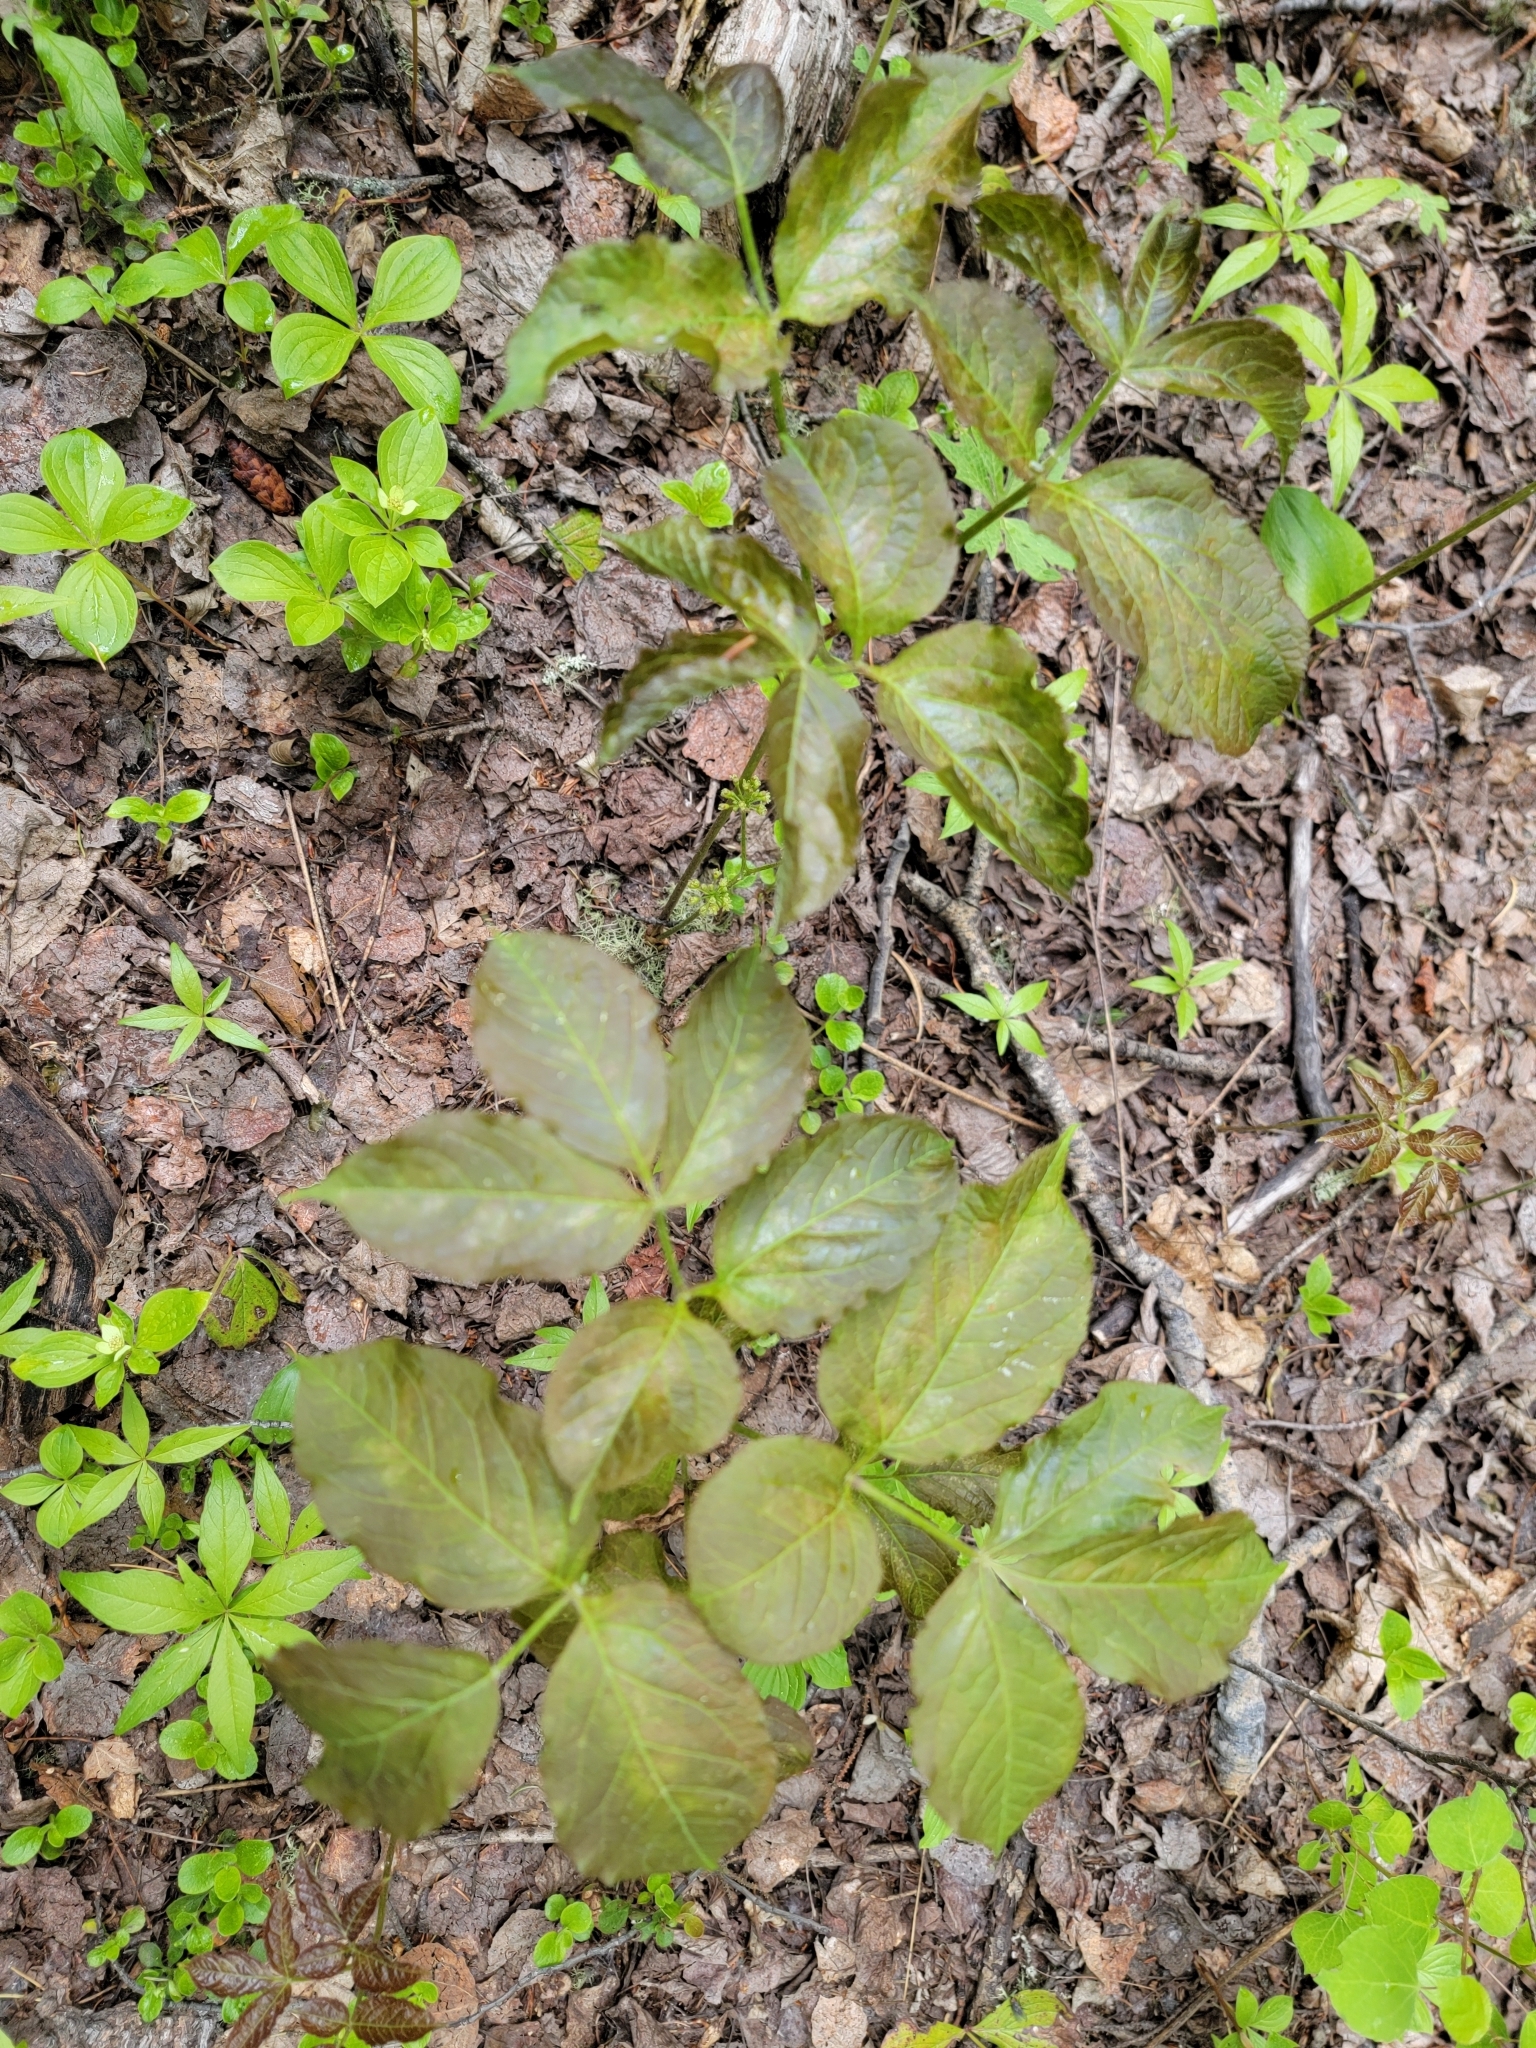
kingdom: Plantae
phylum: Tracheophyta
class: Magnoliopsida
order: Apiales
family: Araliaceae
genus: Aralia
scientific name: Aralia nudicaulis
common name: Wild sarsaparilla
